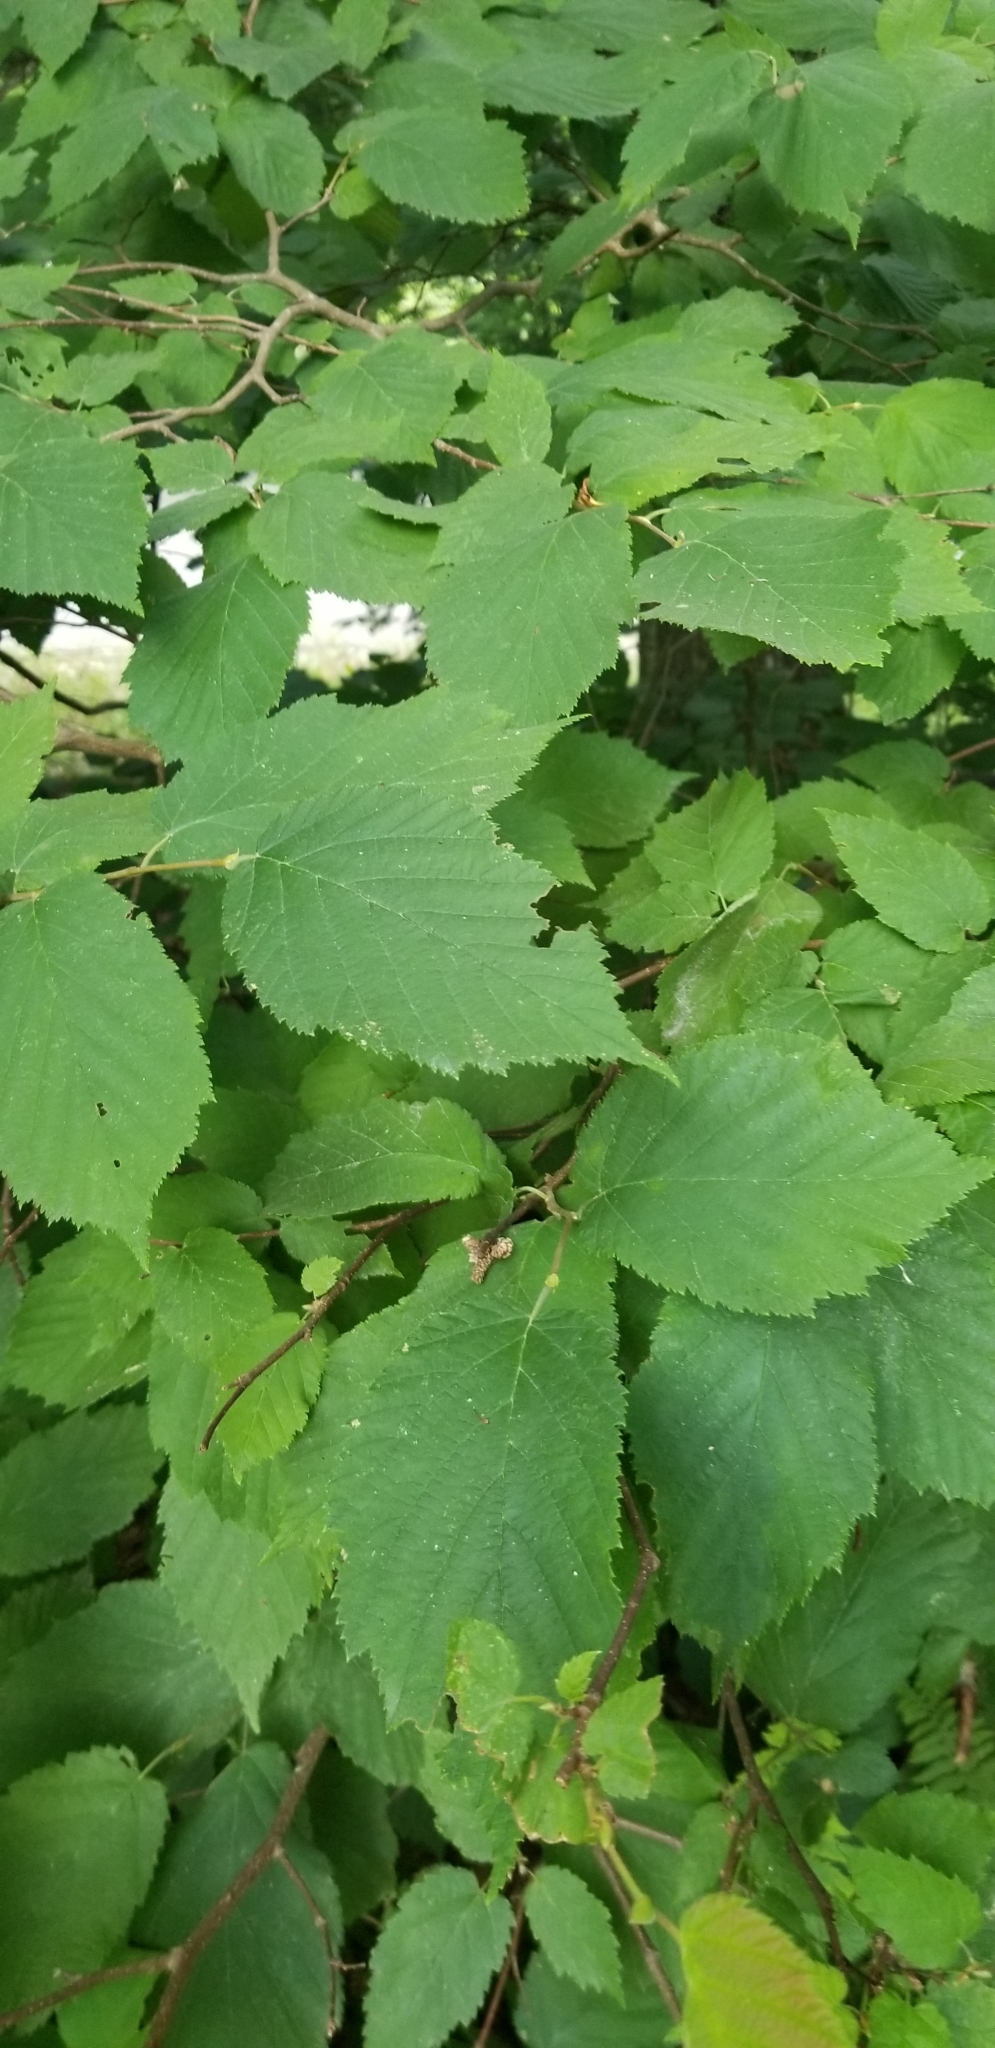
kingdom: Plantae
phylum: Tracheophyta
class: Magnoliopsida
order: Fagales
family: Betulaceae
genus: Corylus
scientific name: Corylus cornuta
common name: Beaked hazel
